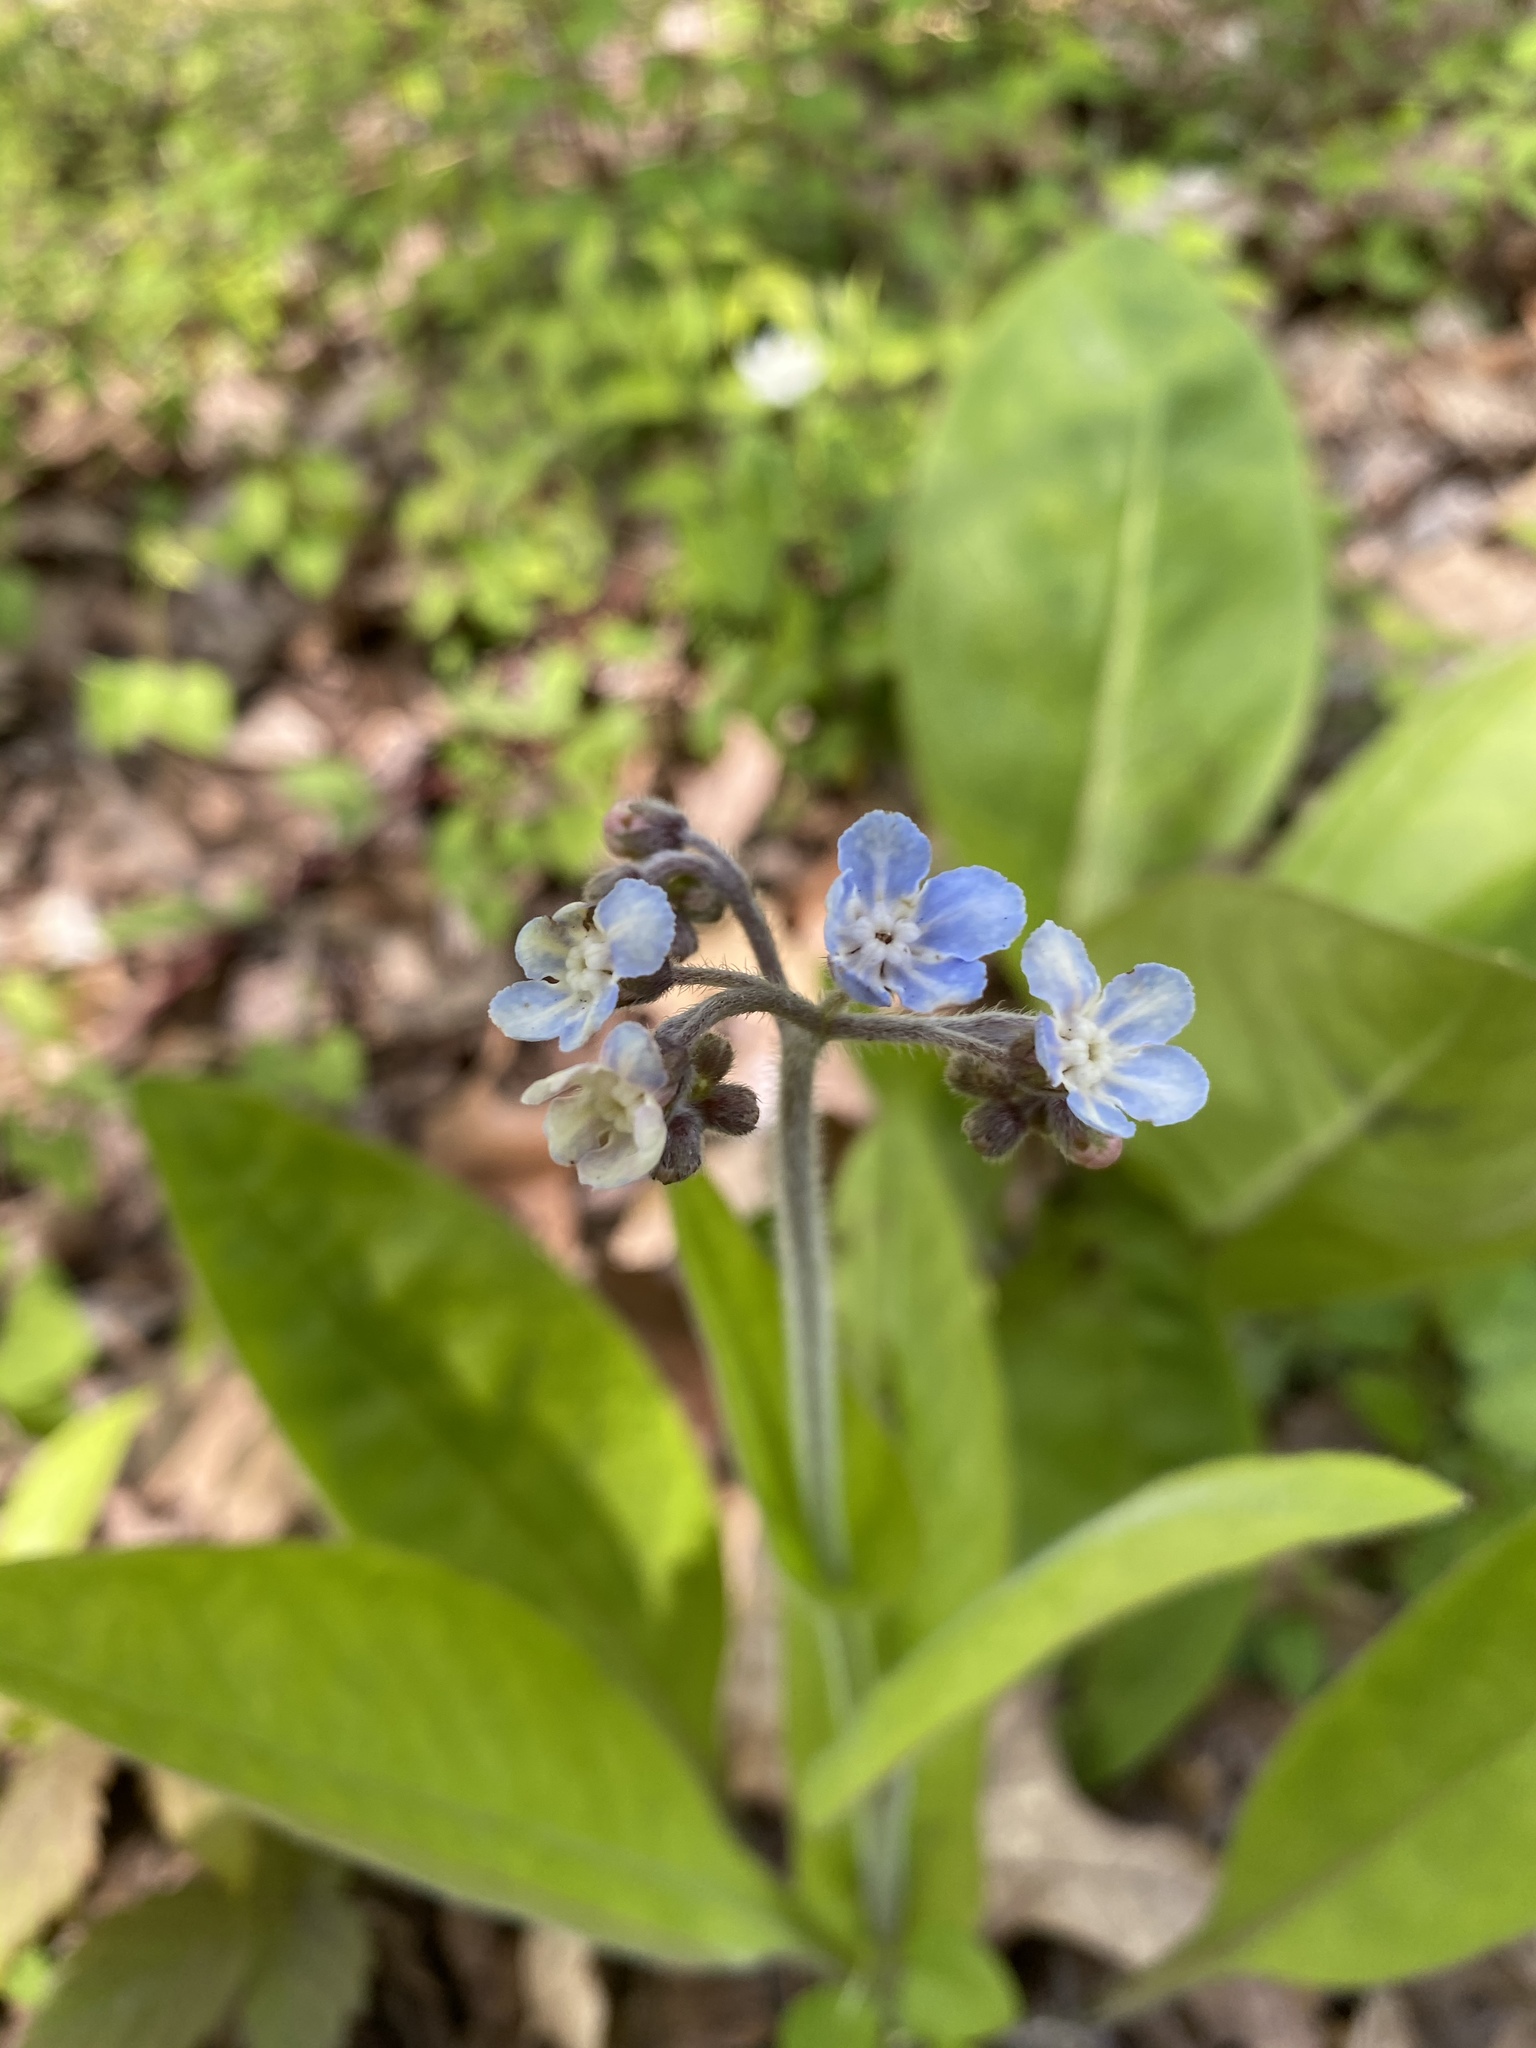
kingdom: Plantae
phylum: Tracheophyta
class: Magnoliopsida
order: Boraginales
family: Boraginaceae
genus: Andersonglossum
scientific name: Andersonglossum virginianum
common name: Wild comfrey
